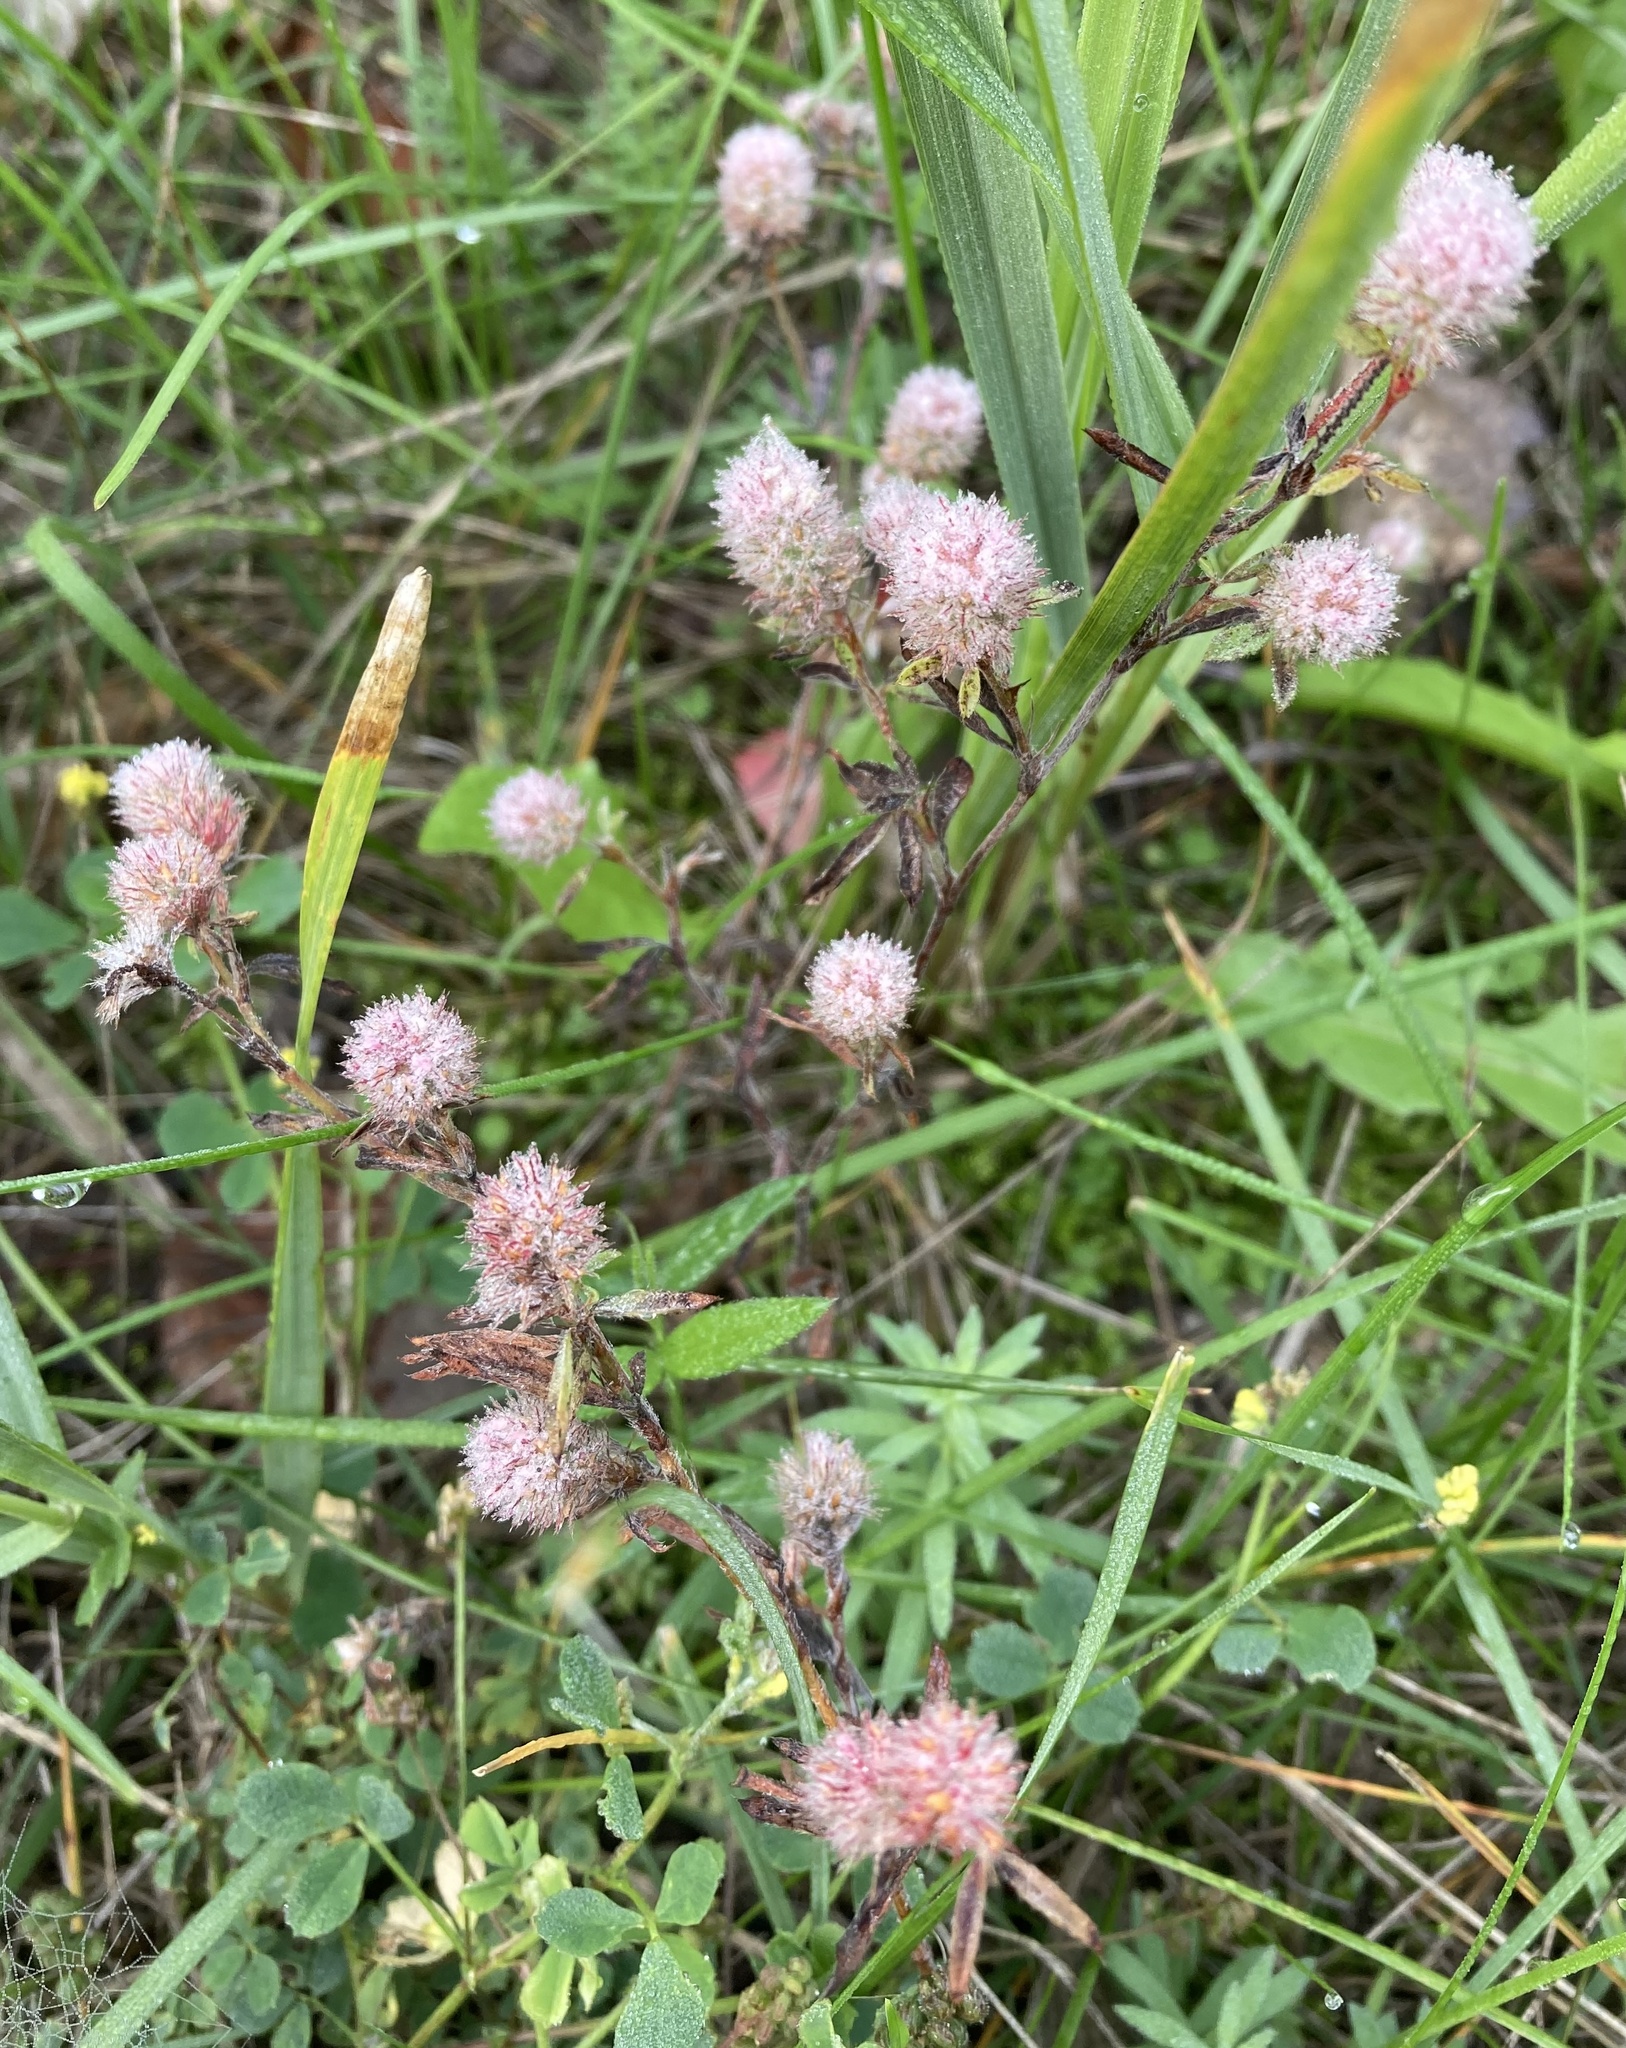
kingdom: Plantae
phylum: Tracheophyta
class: Magnoliopsida
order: Fabales
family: Fabaceae
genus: Trifolium
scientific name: Trifolium arvense
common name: Hare's-foot clover
